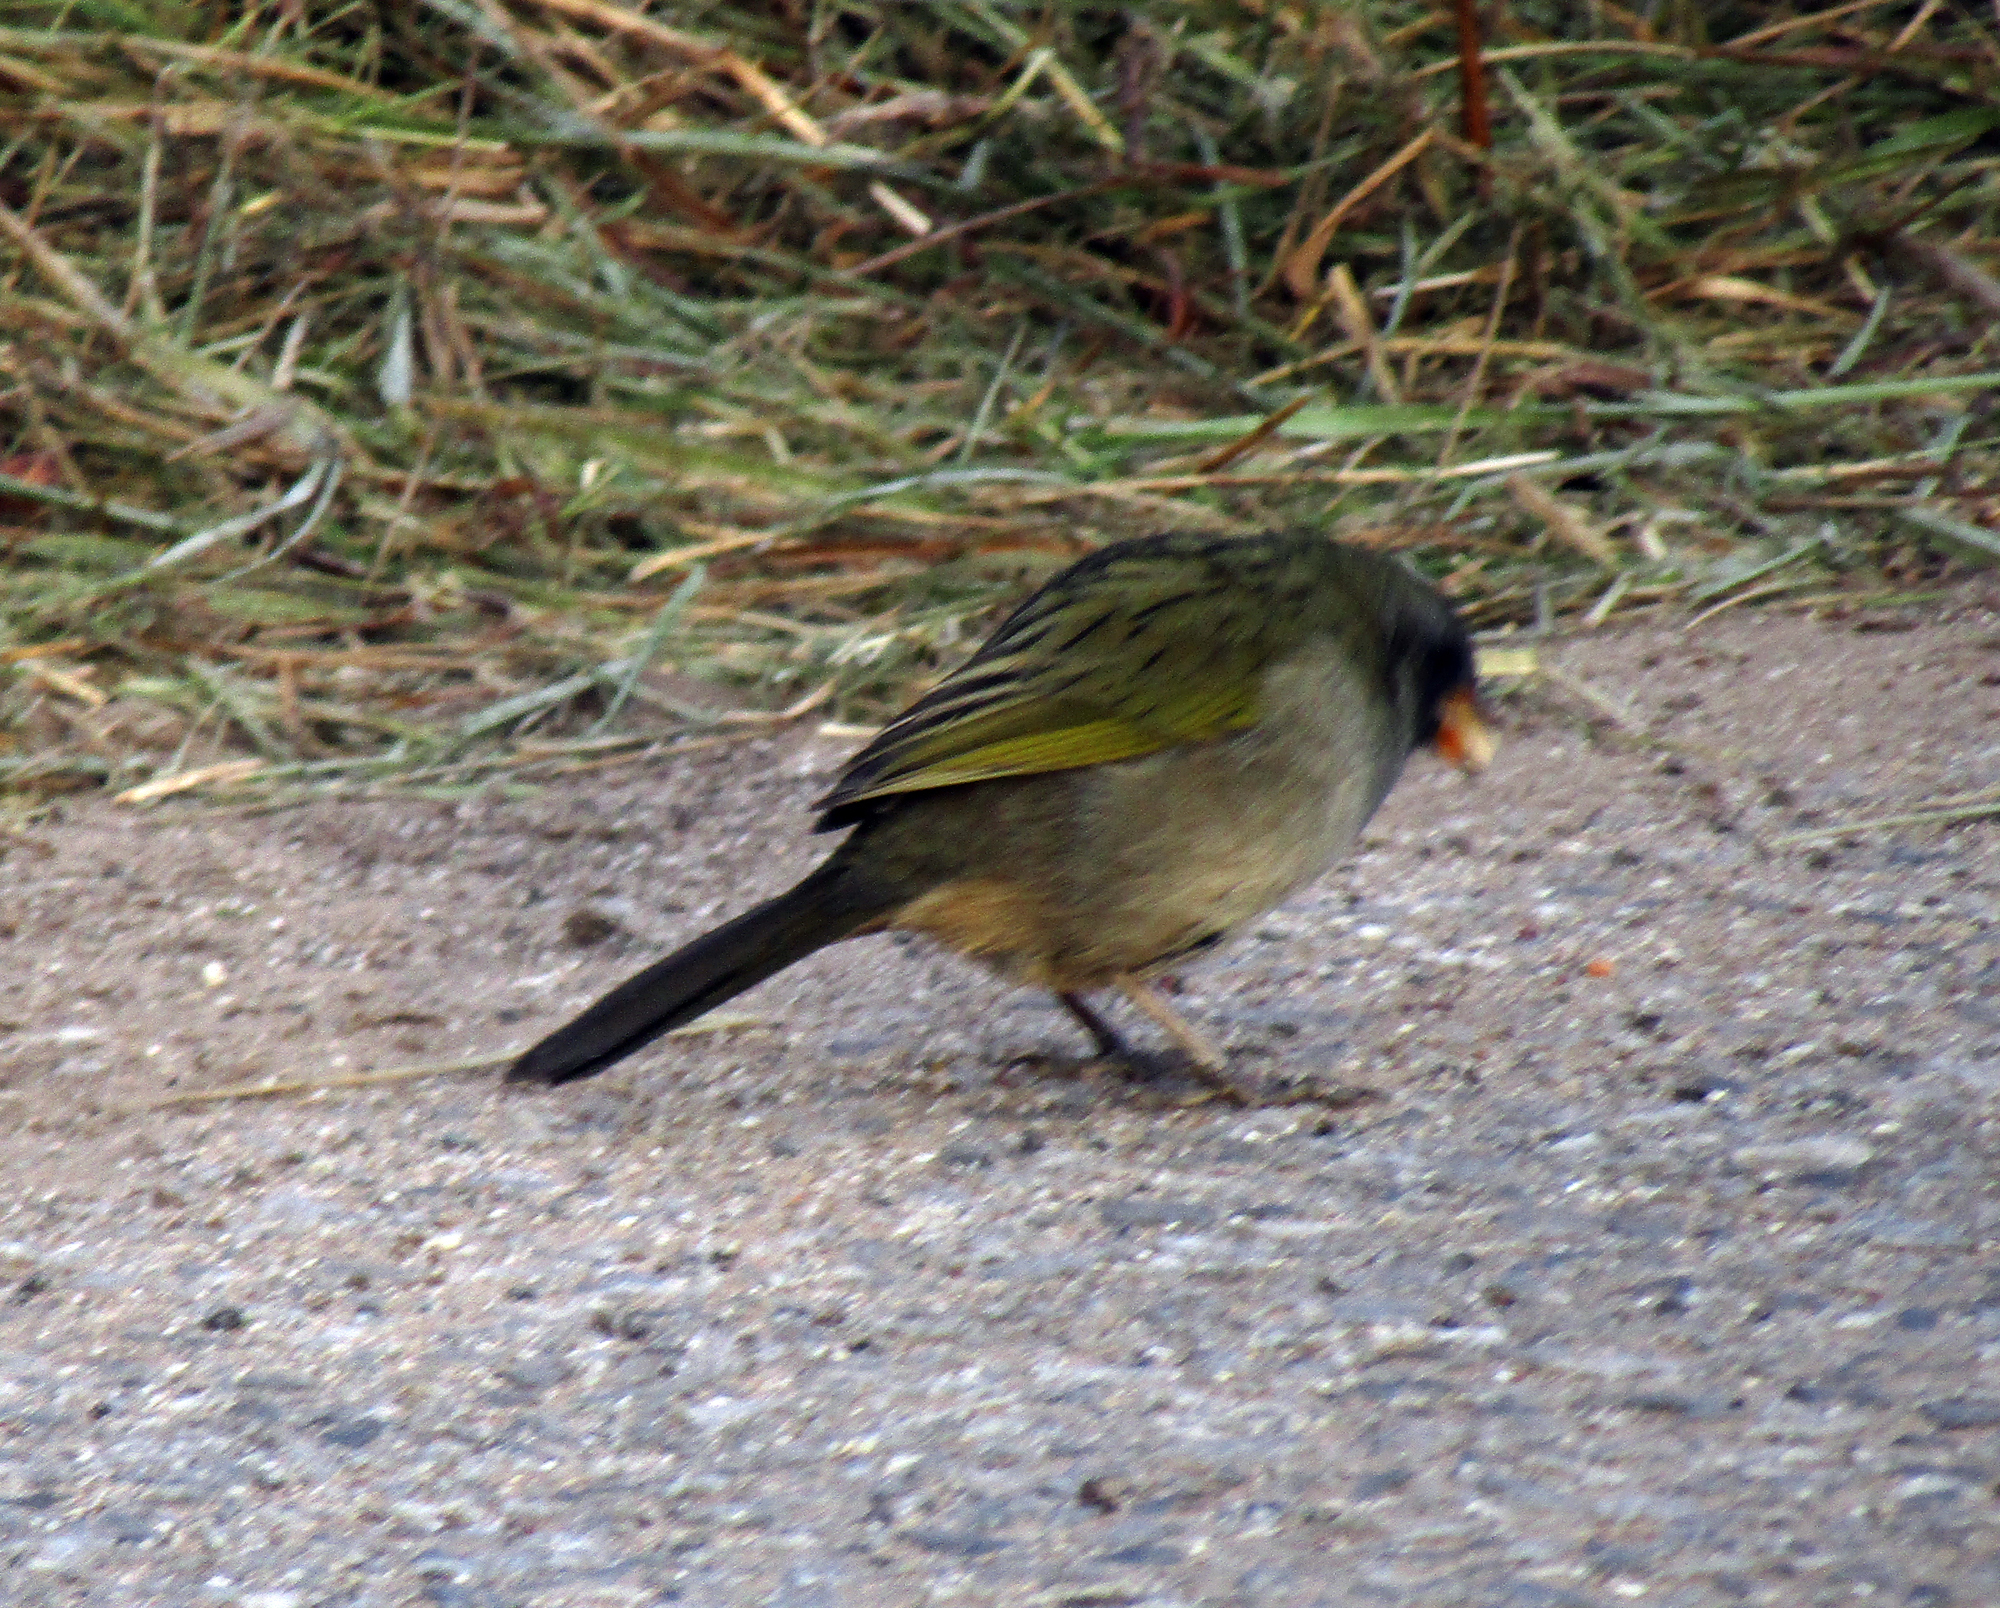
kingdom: Animalia
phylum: Chordata
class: Aves
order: Passeriformes
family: Thraupidae
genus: Embernagra
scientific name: Embernagra platensis
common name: Pampa finch
